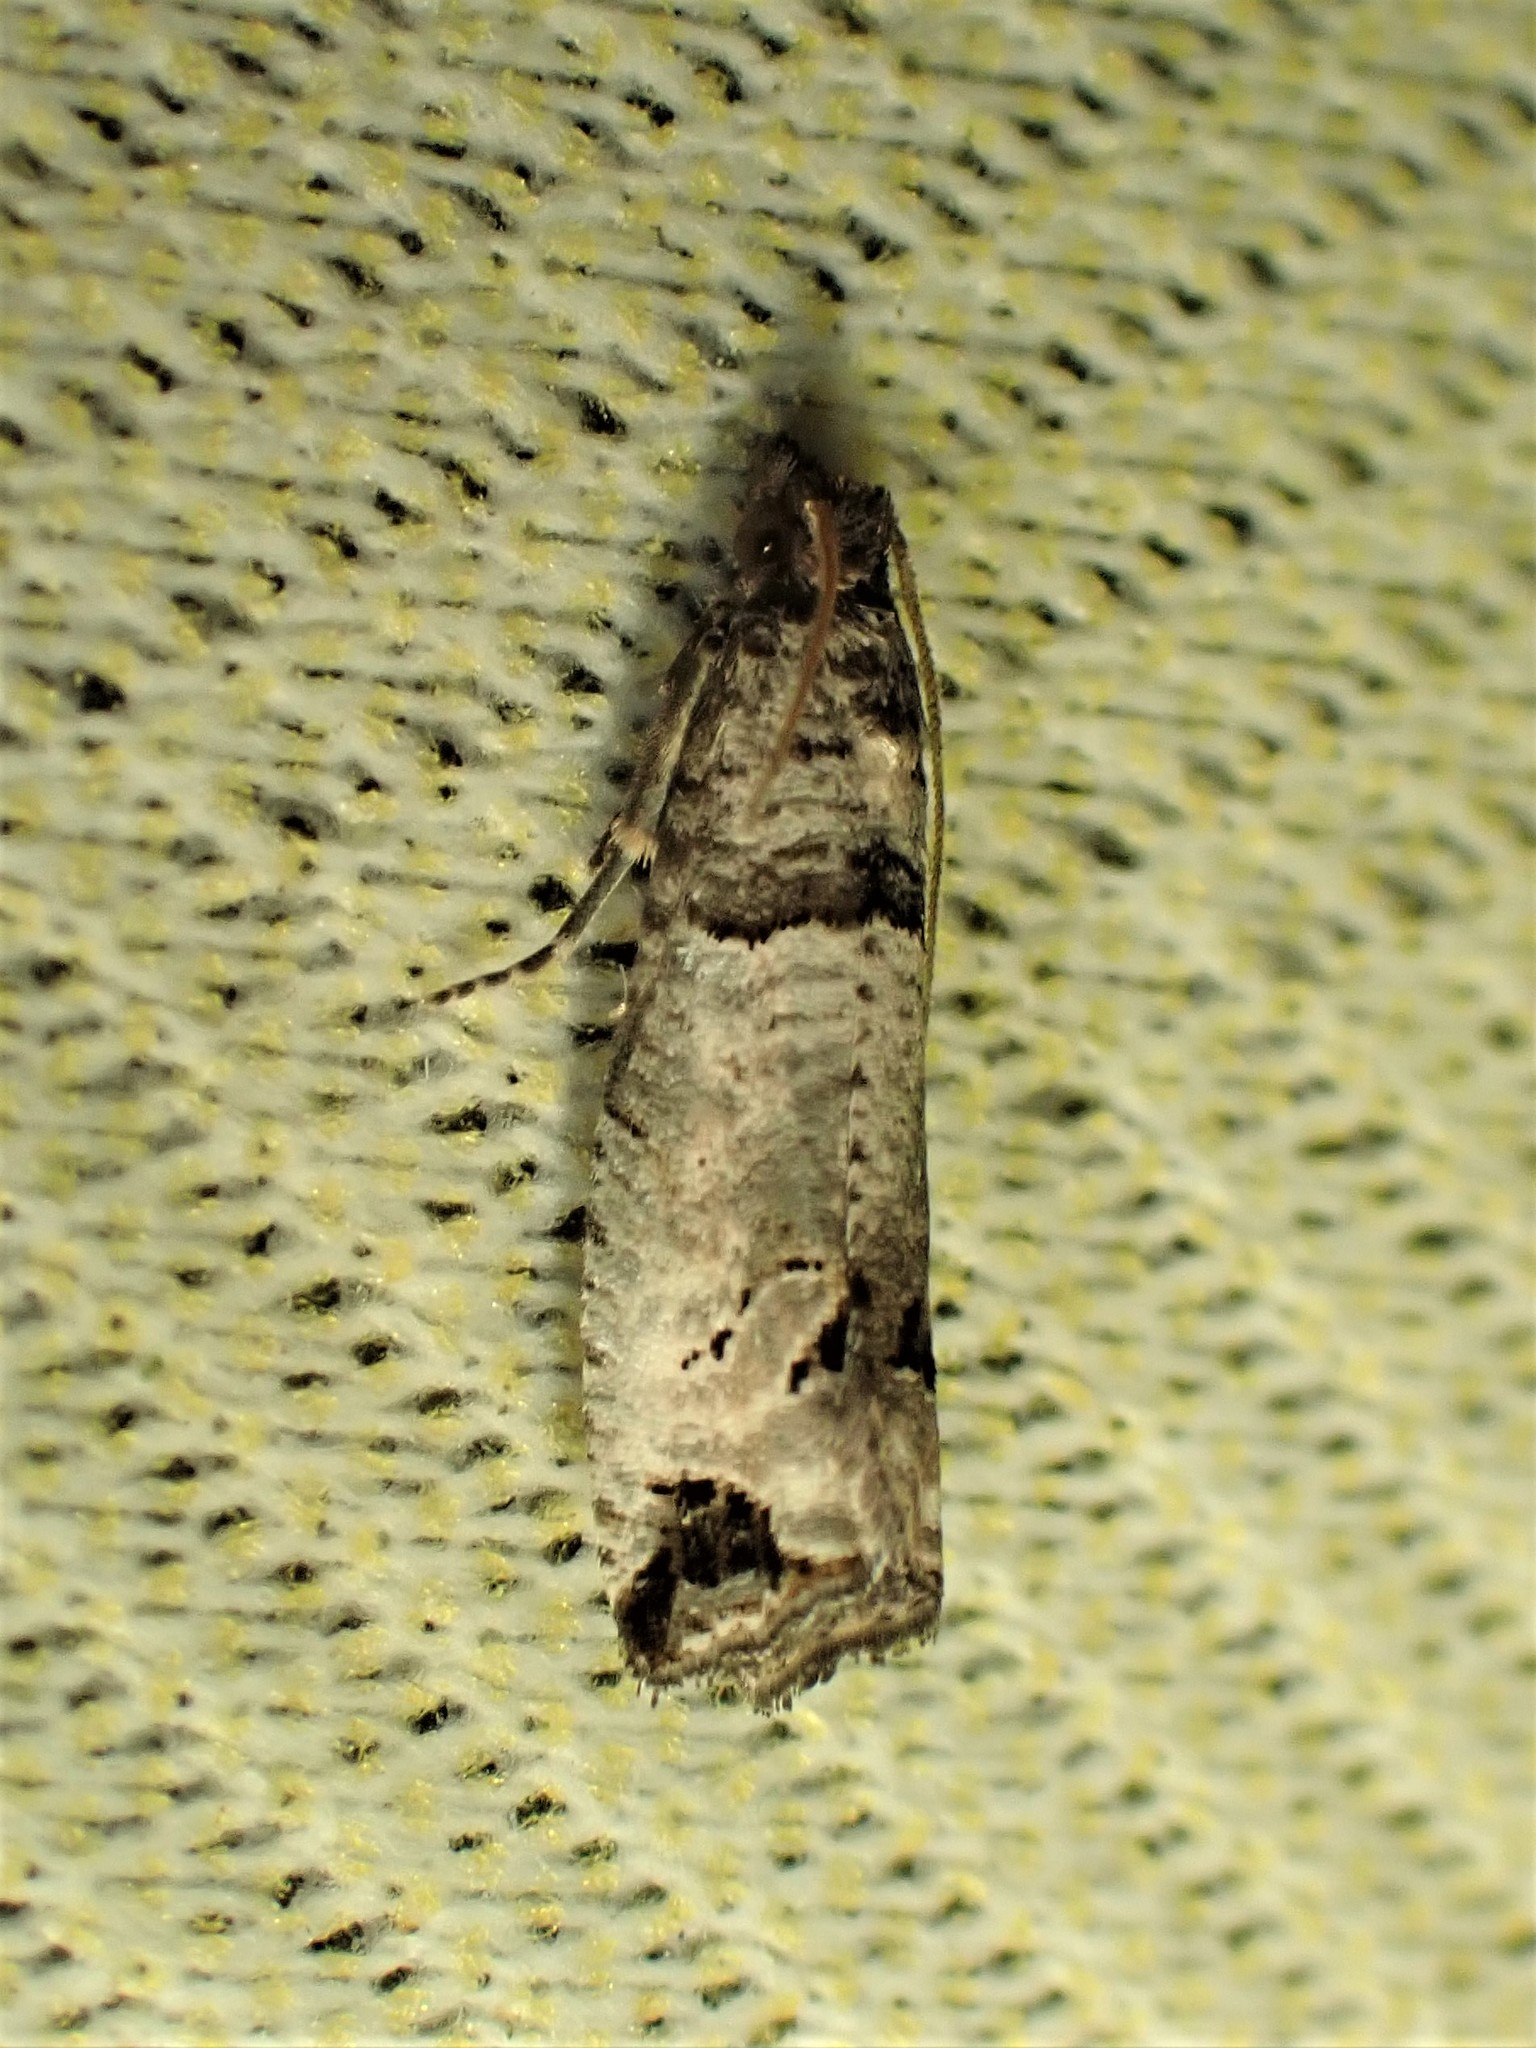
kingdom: Animalia
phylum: Arthropoda
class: Insecta
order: Lepidoptera
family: Tortricidae
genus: Notocelia
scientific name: Notocelia culminana
